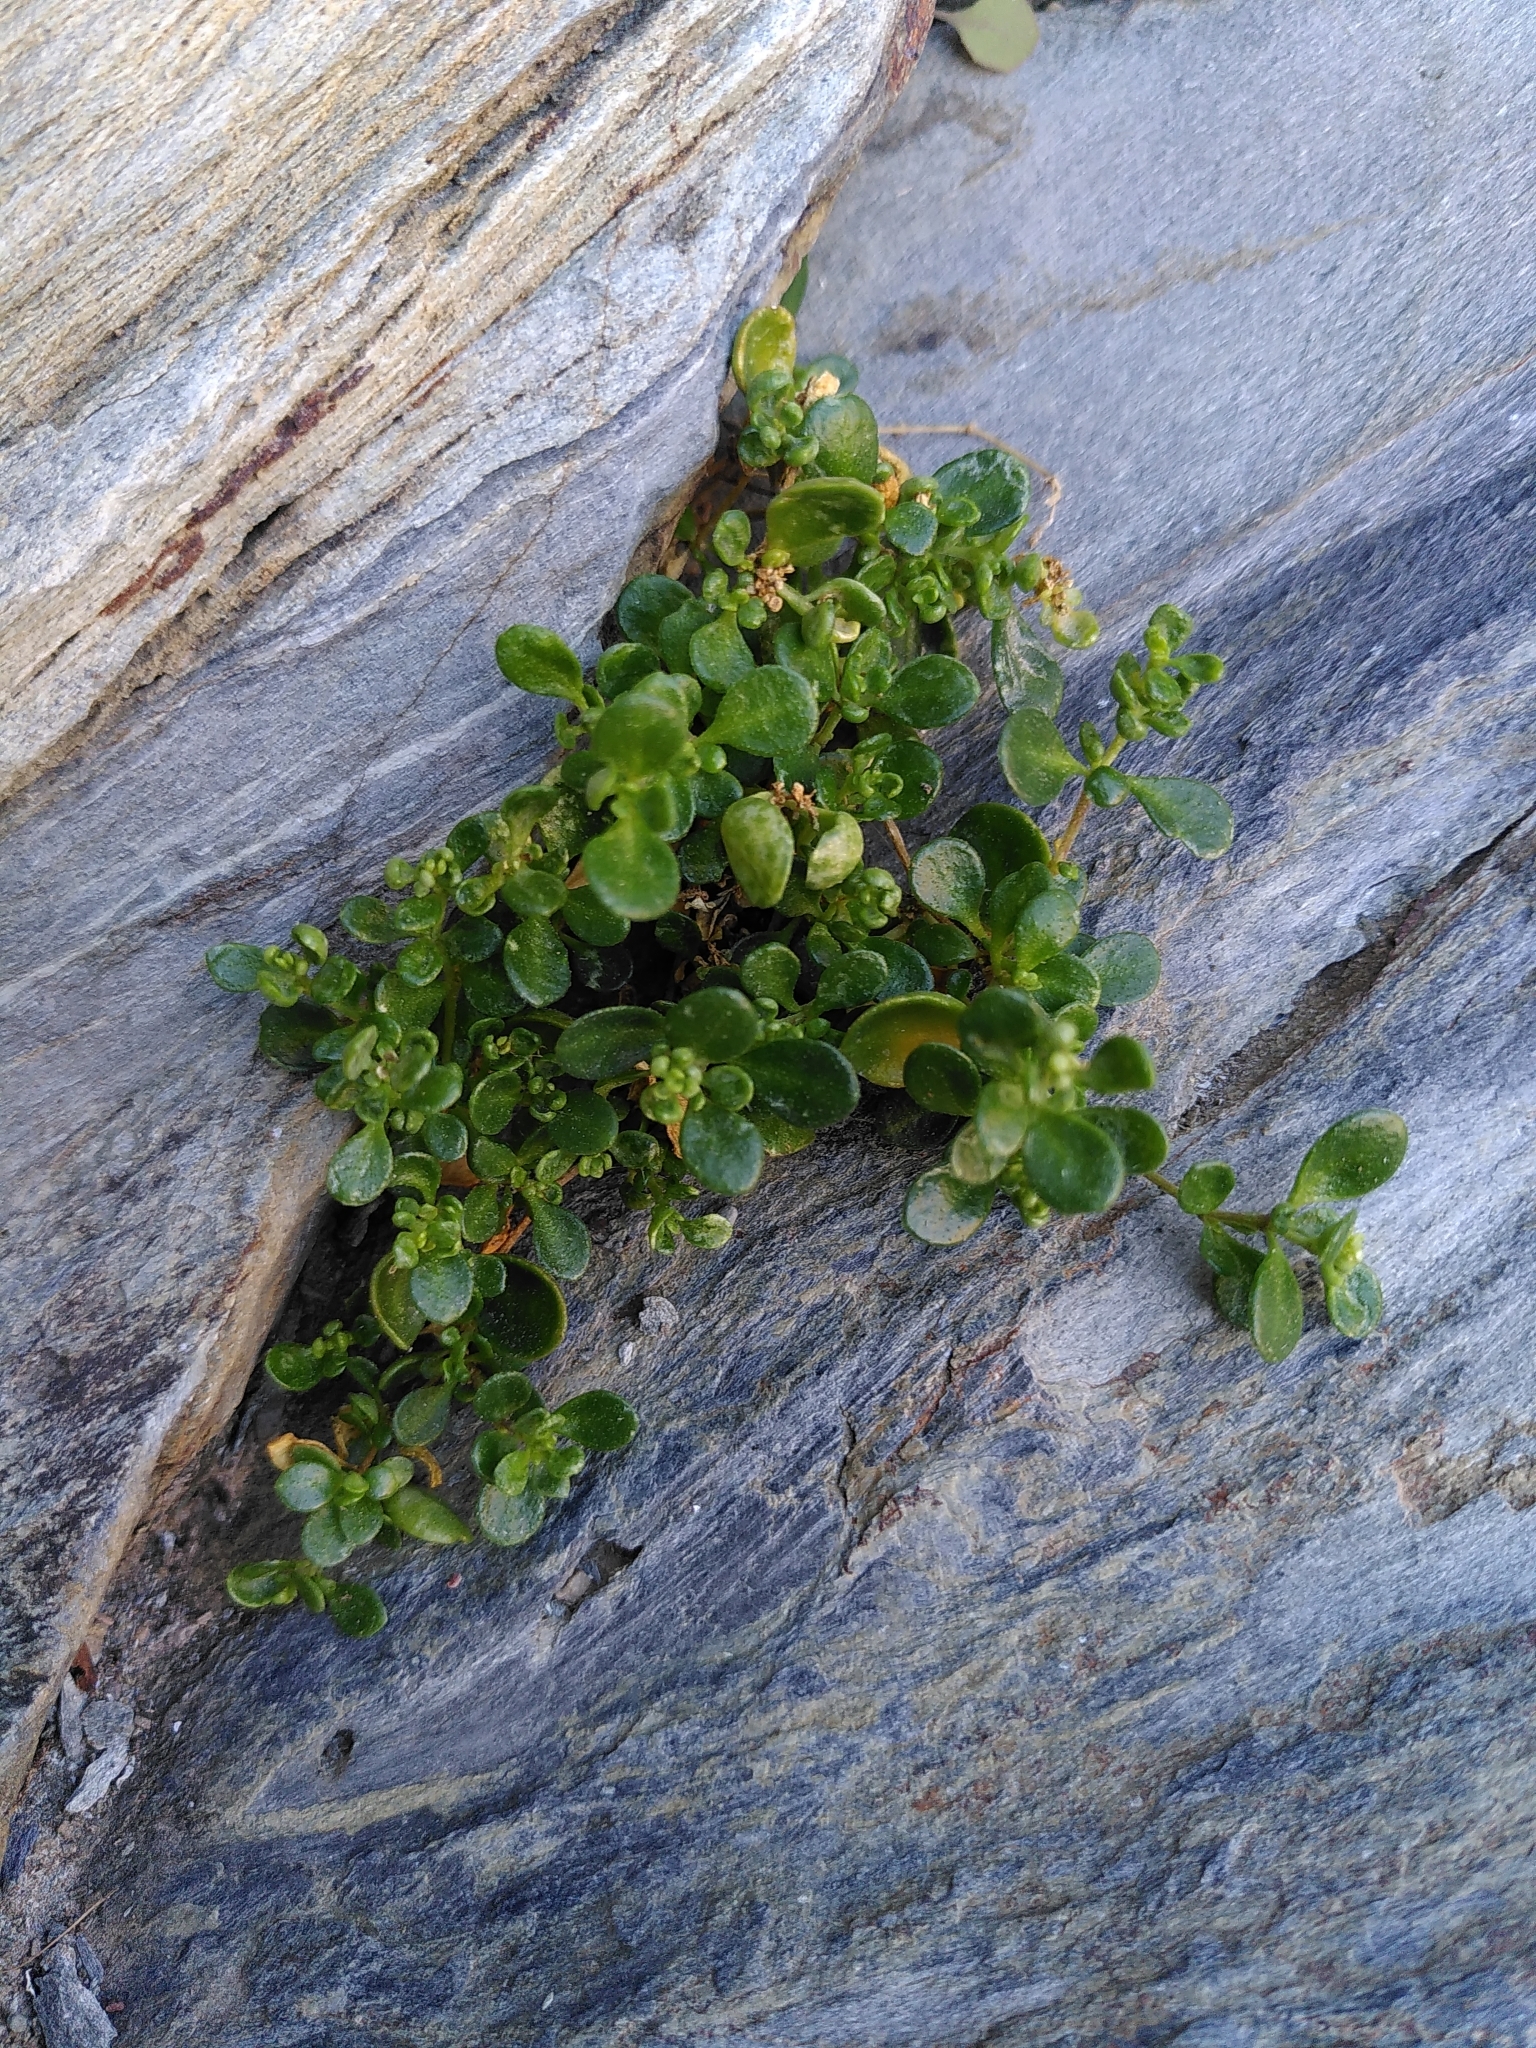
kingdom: Plantae
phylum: Tracheophyta
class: Magnoliopsida
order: Caryophyllales
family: Caryophyllaceae
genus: Polycarpon
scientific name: Polycarpon polycarpoides
